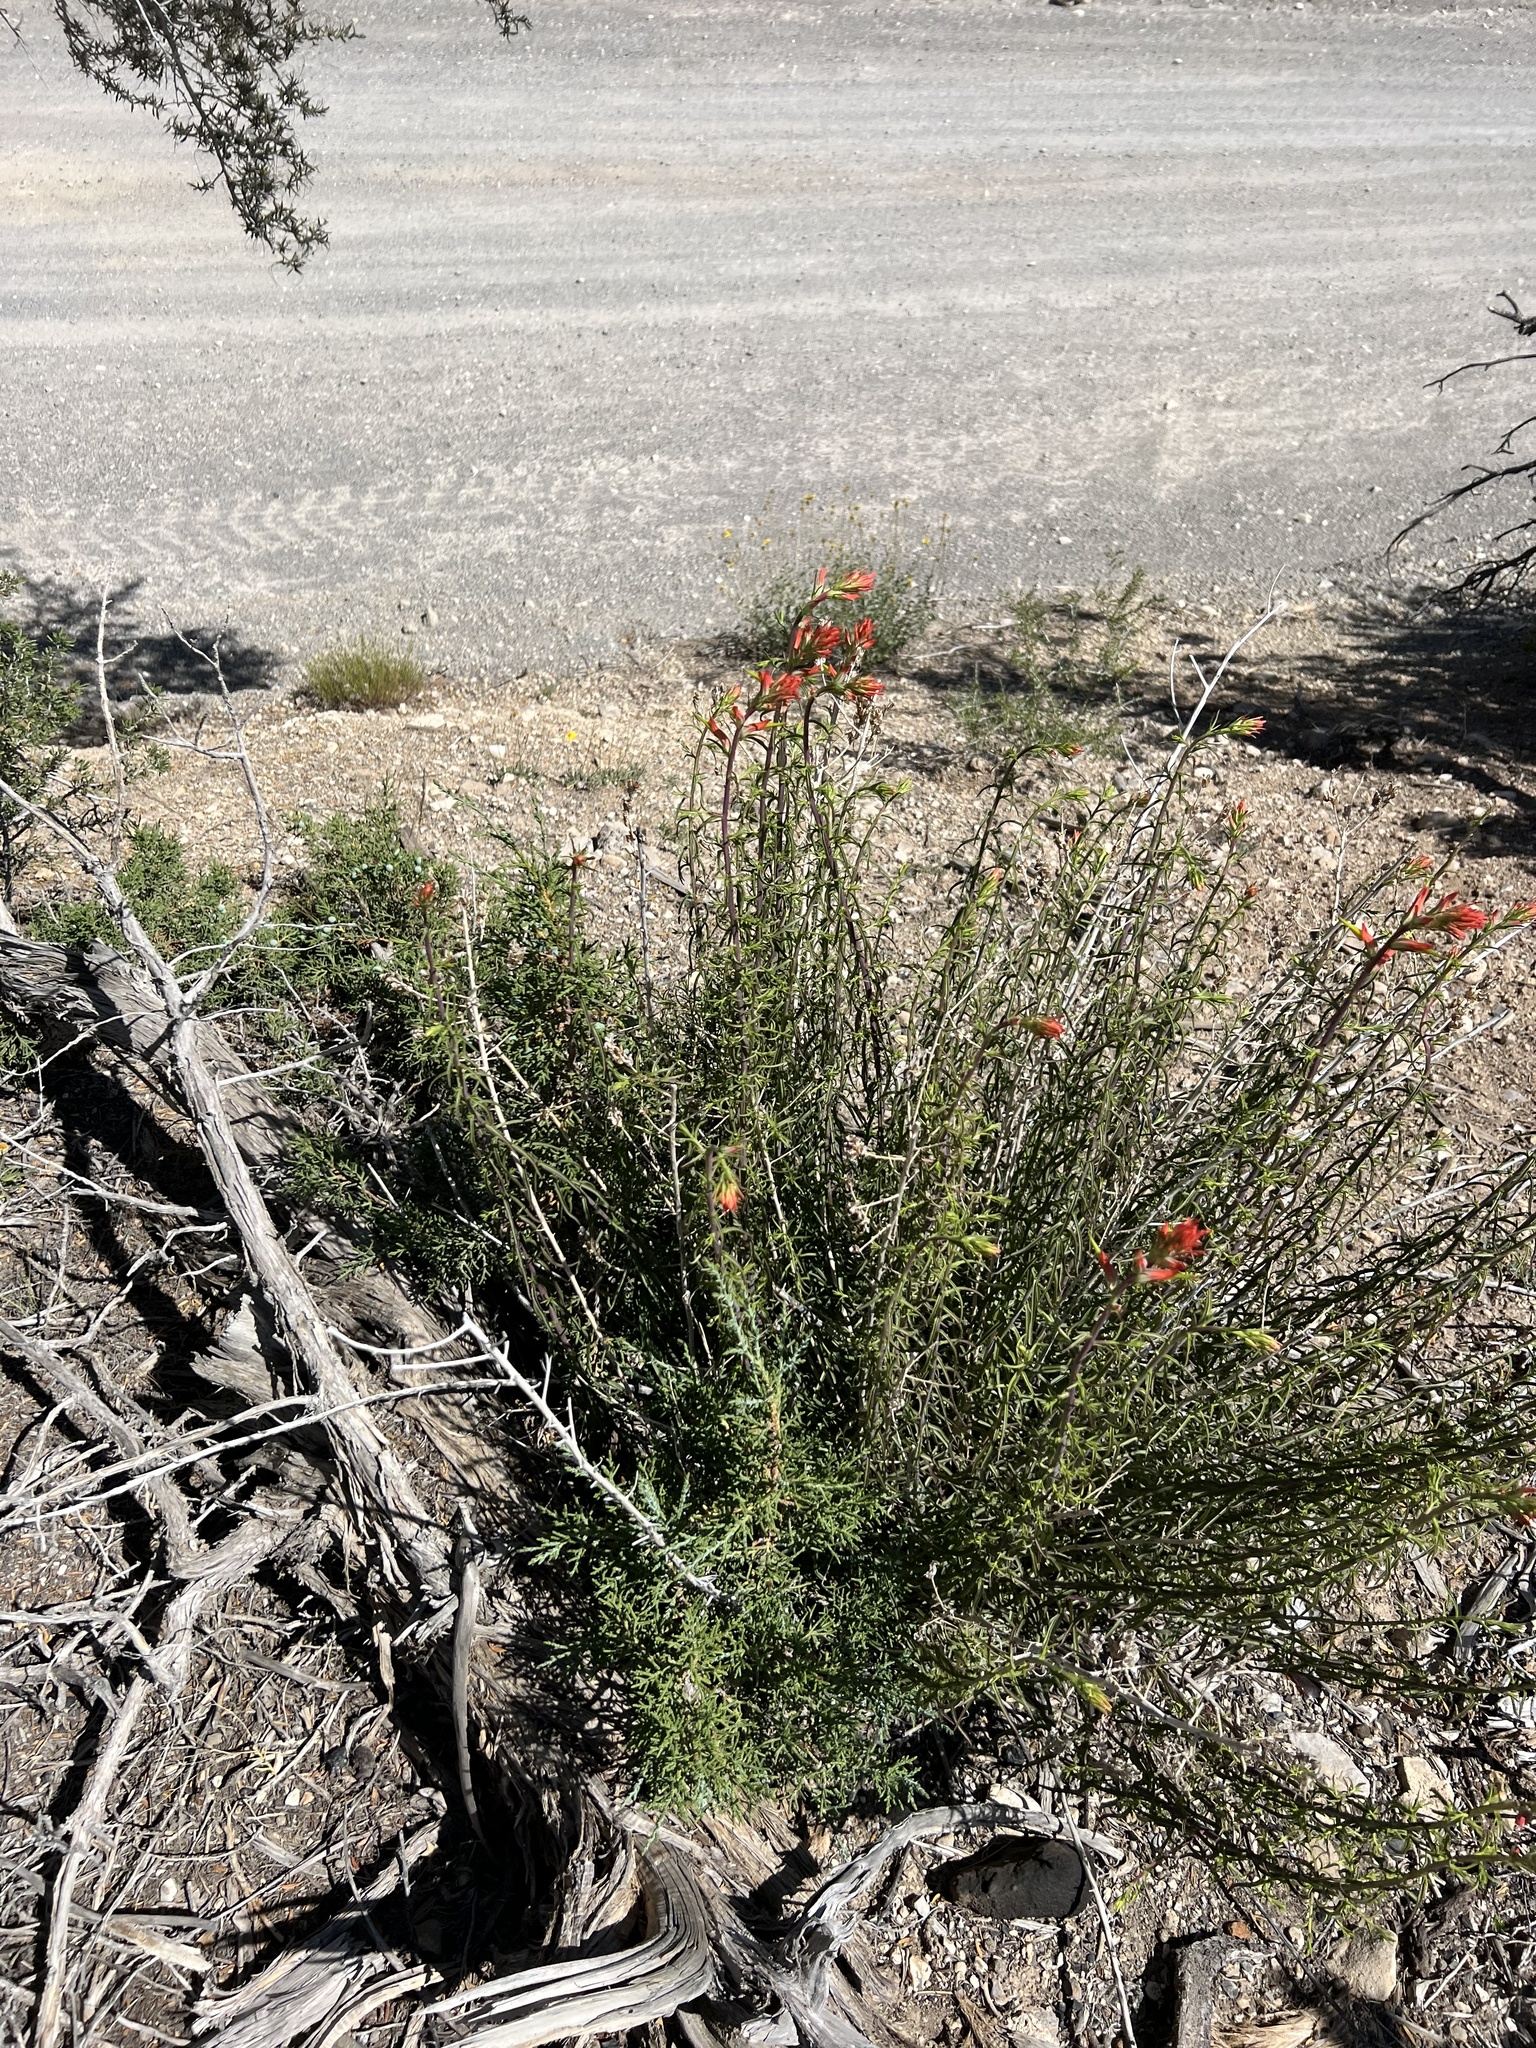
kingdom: Plantae
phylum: Tracheophyta
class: Magnoliopsida
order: Lamiales
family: Orobanchaceae
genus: Castilleja
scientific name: Castilleja linariifolia
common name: Wyoming paintbrush
